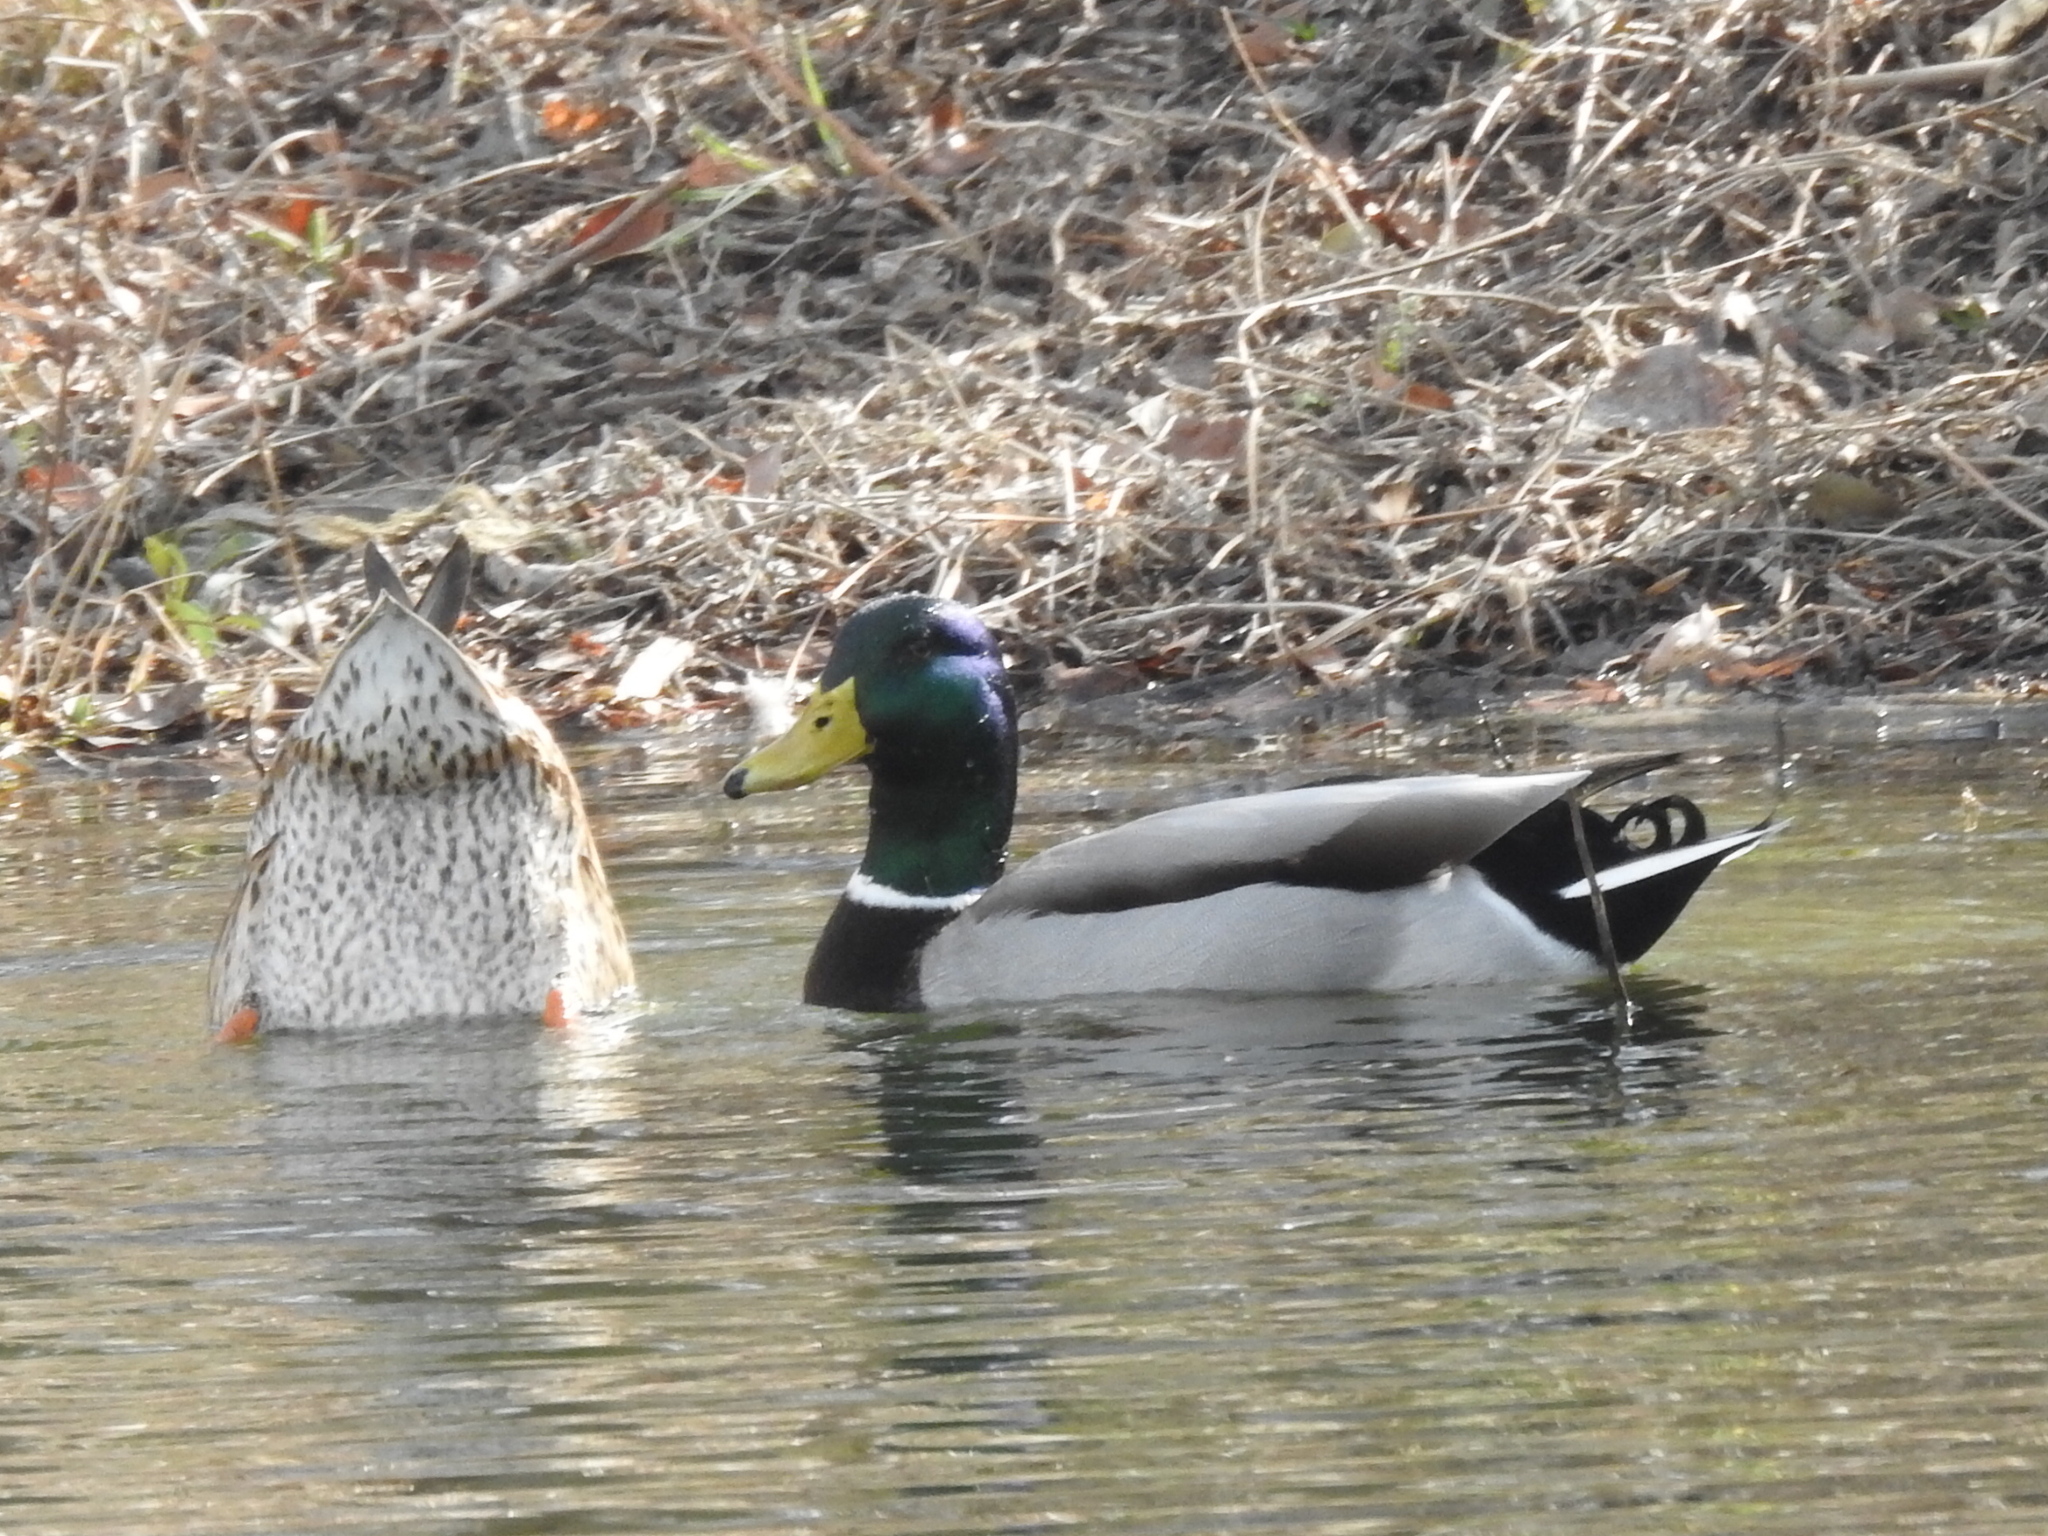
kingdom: Animalia
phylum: Chordata
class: Aves
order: Anseriformes
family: Anatidae
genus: Anas
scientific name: Anas platyrhynchos
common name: Mallard
